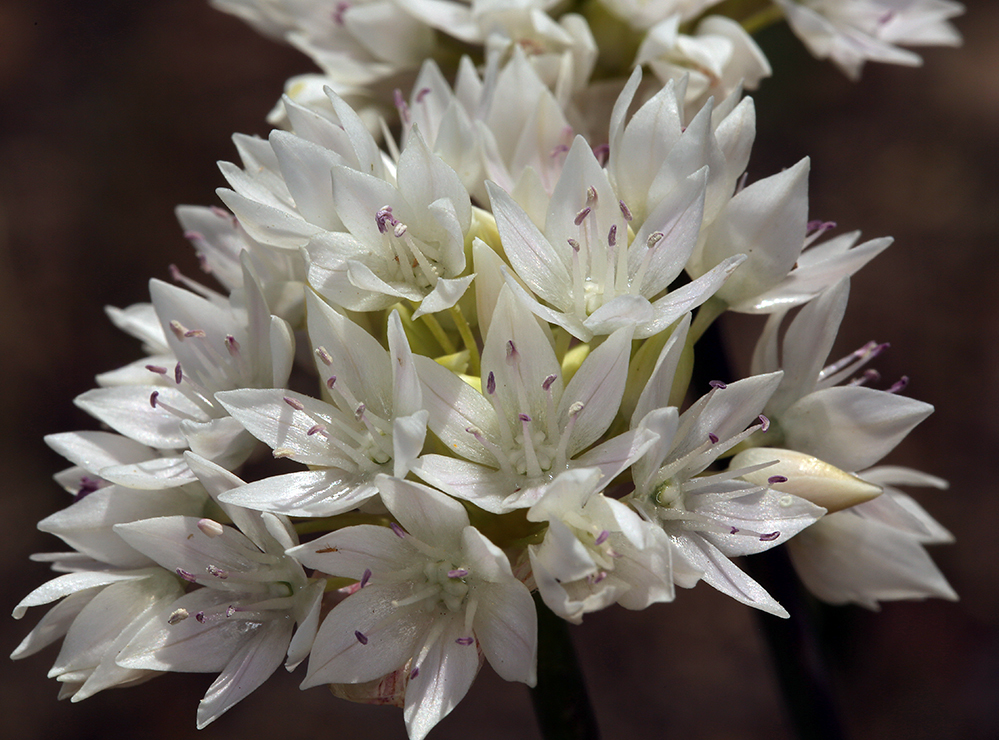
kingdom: Plantae
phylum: Tracheophyta
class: Liliopsida
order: Asparagales
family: Amaryllidaceae
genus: Allium
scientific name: Allium amplectens
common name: Narrow-leaved onion
